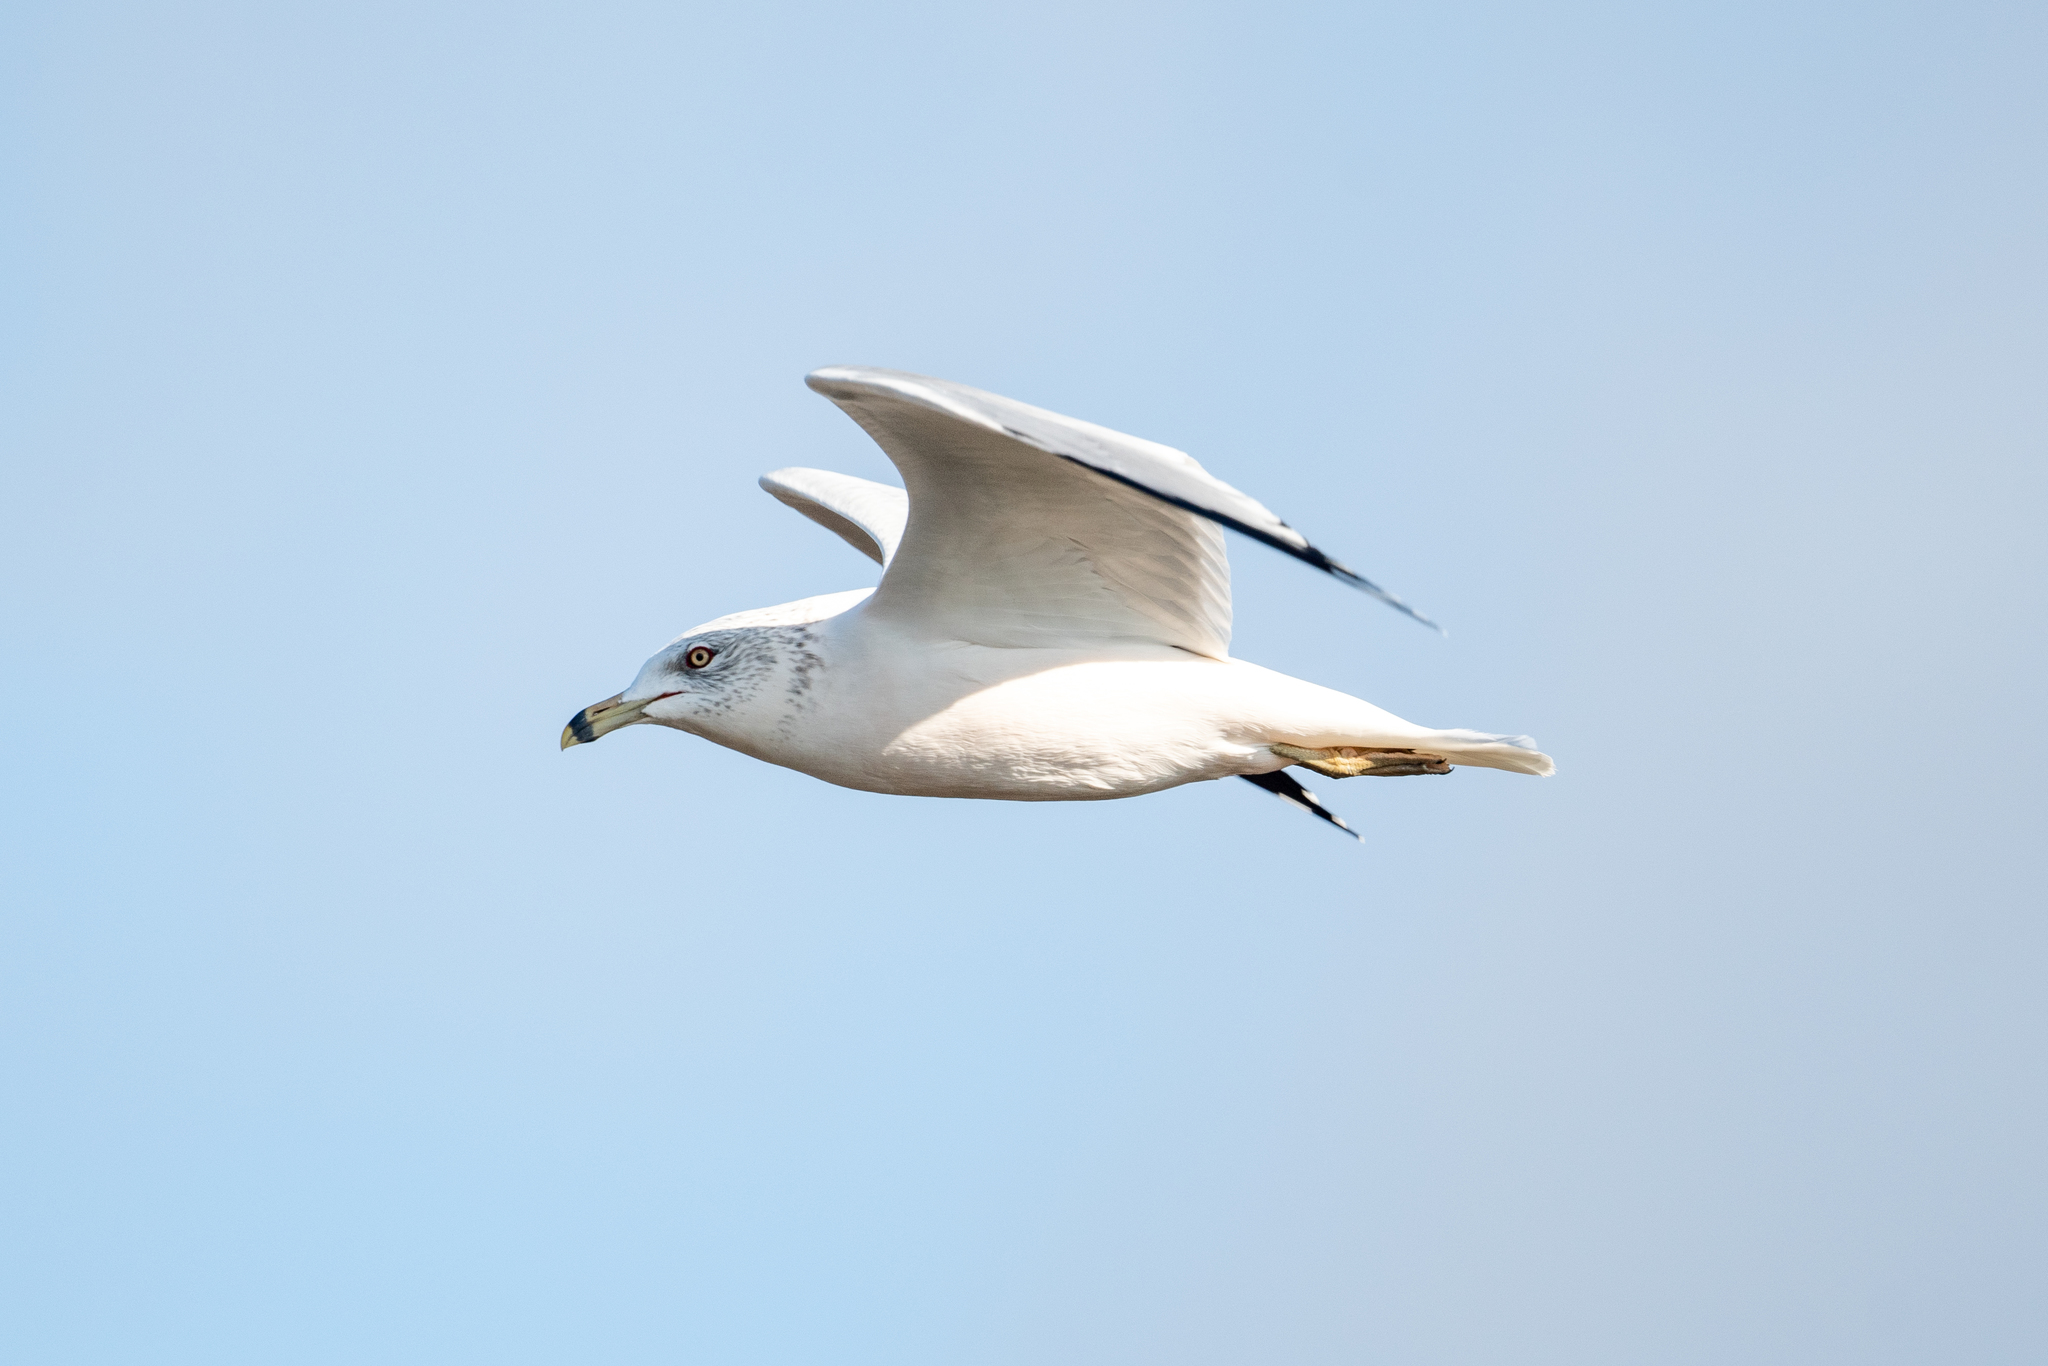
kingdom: Animalia
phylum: Chordata
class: Aves
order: Charadriiformes
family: Laridae
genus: Larus
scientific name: Larus delawarensis
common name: Ring-billed gull
